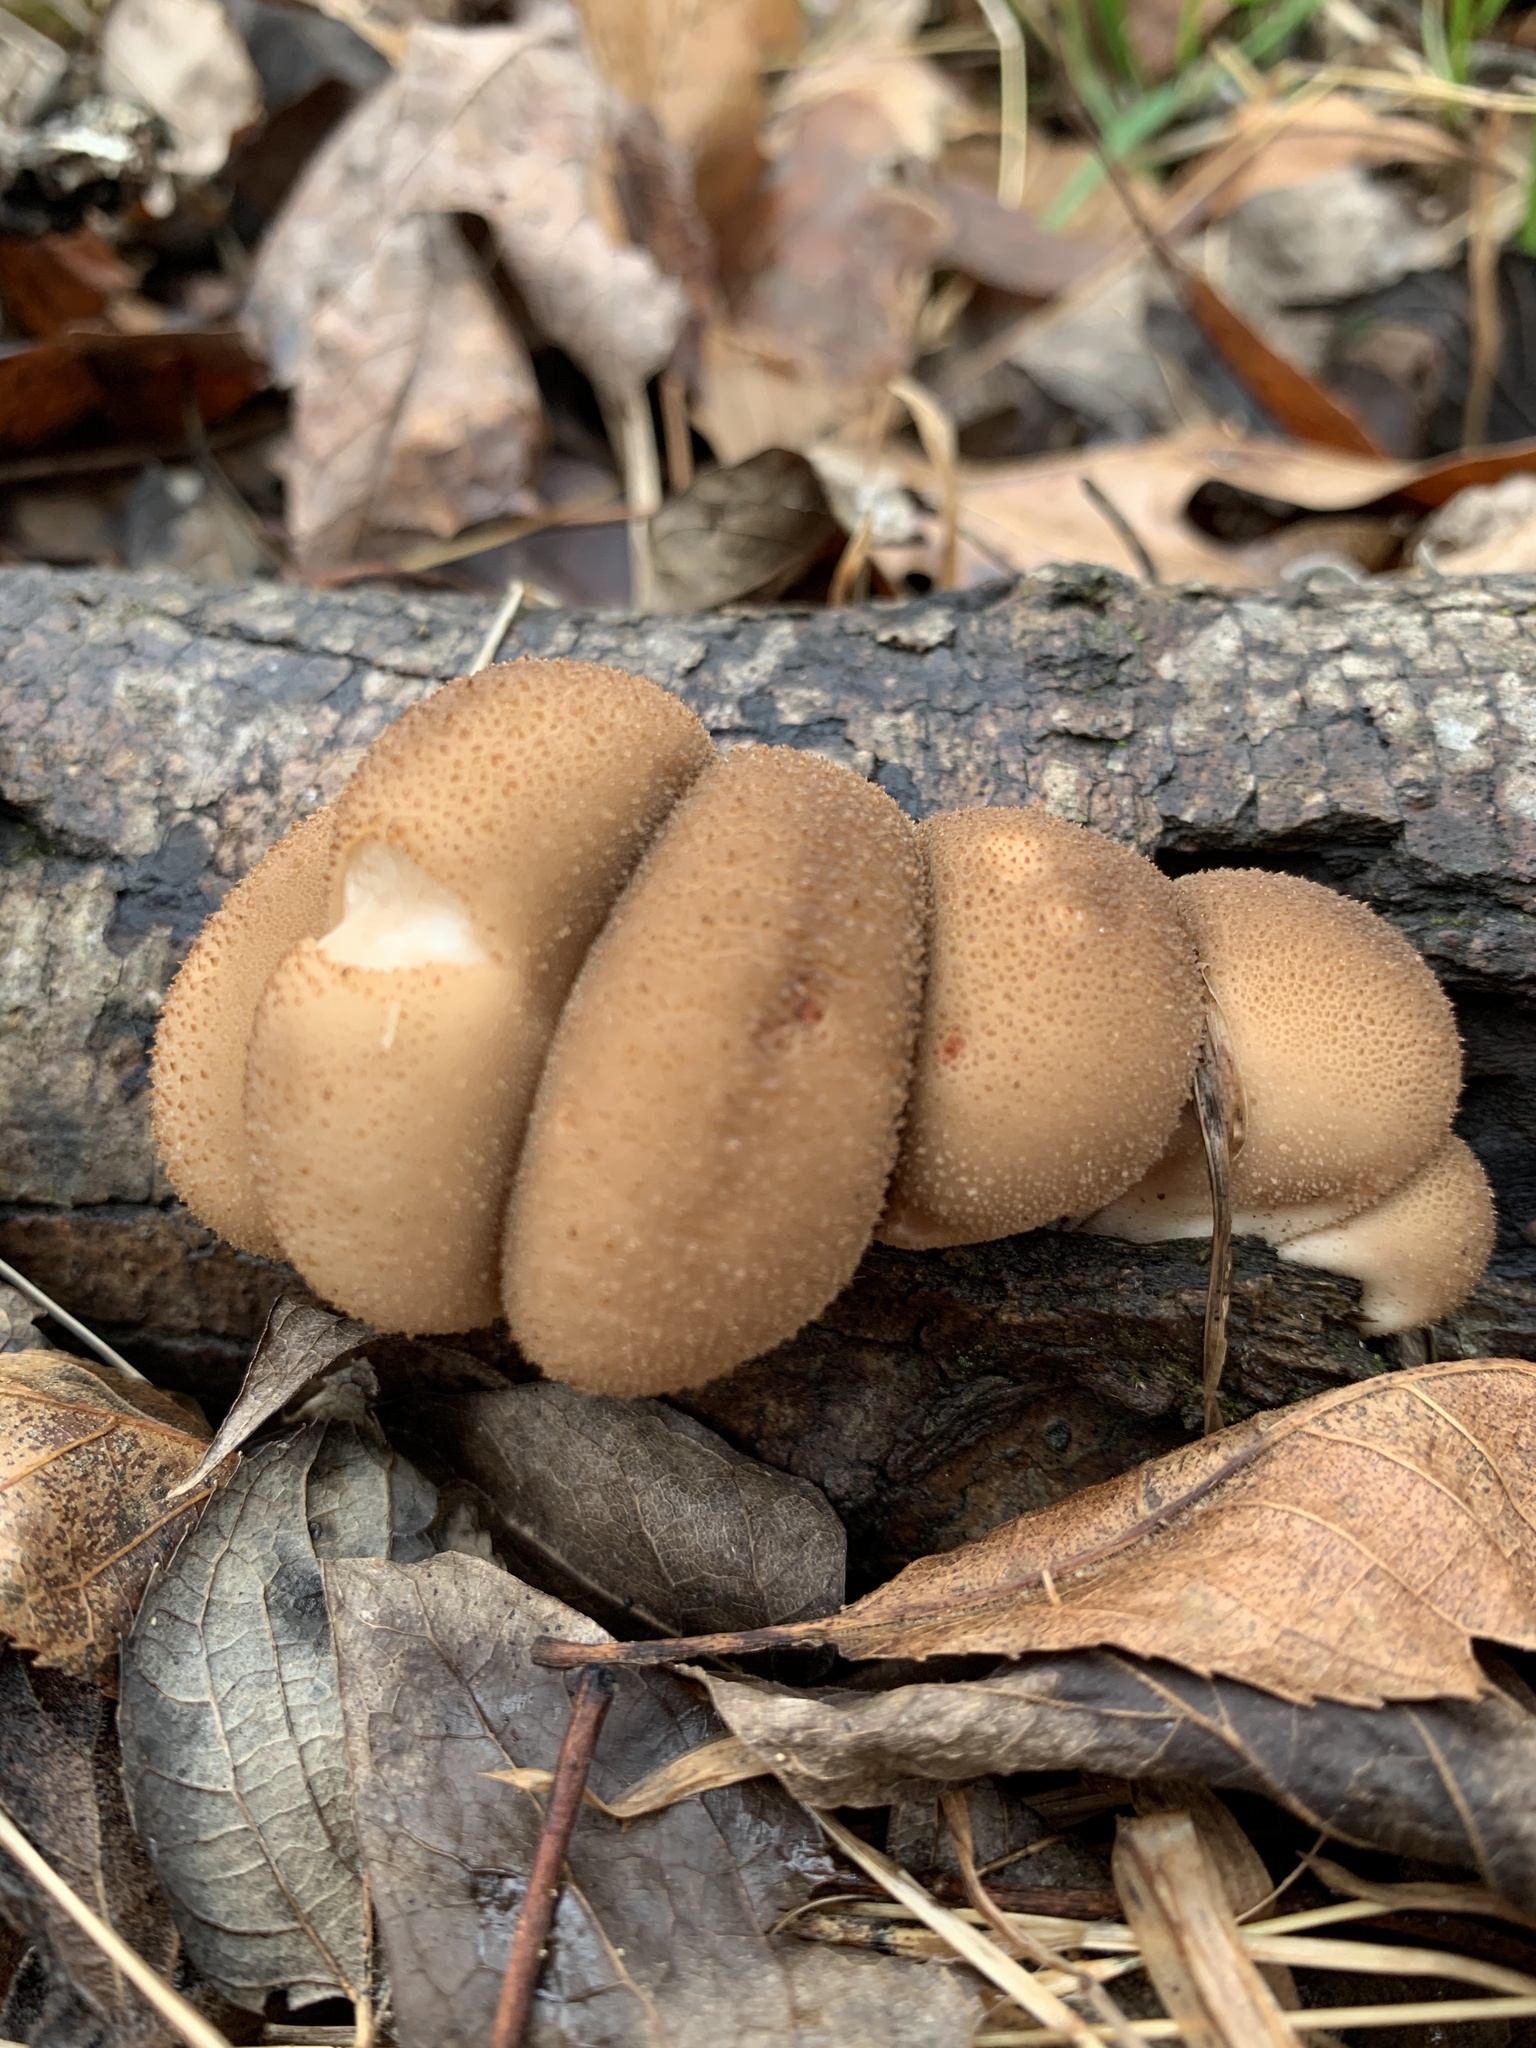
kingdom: Fungi
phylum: Basidiomycota
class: Agaricomycetes
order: Agaricales
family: Lycoperdaceae
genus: Apioperdon
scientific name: Apioperdon pyriforme
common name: Pear-shaped puffball
